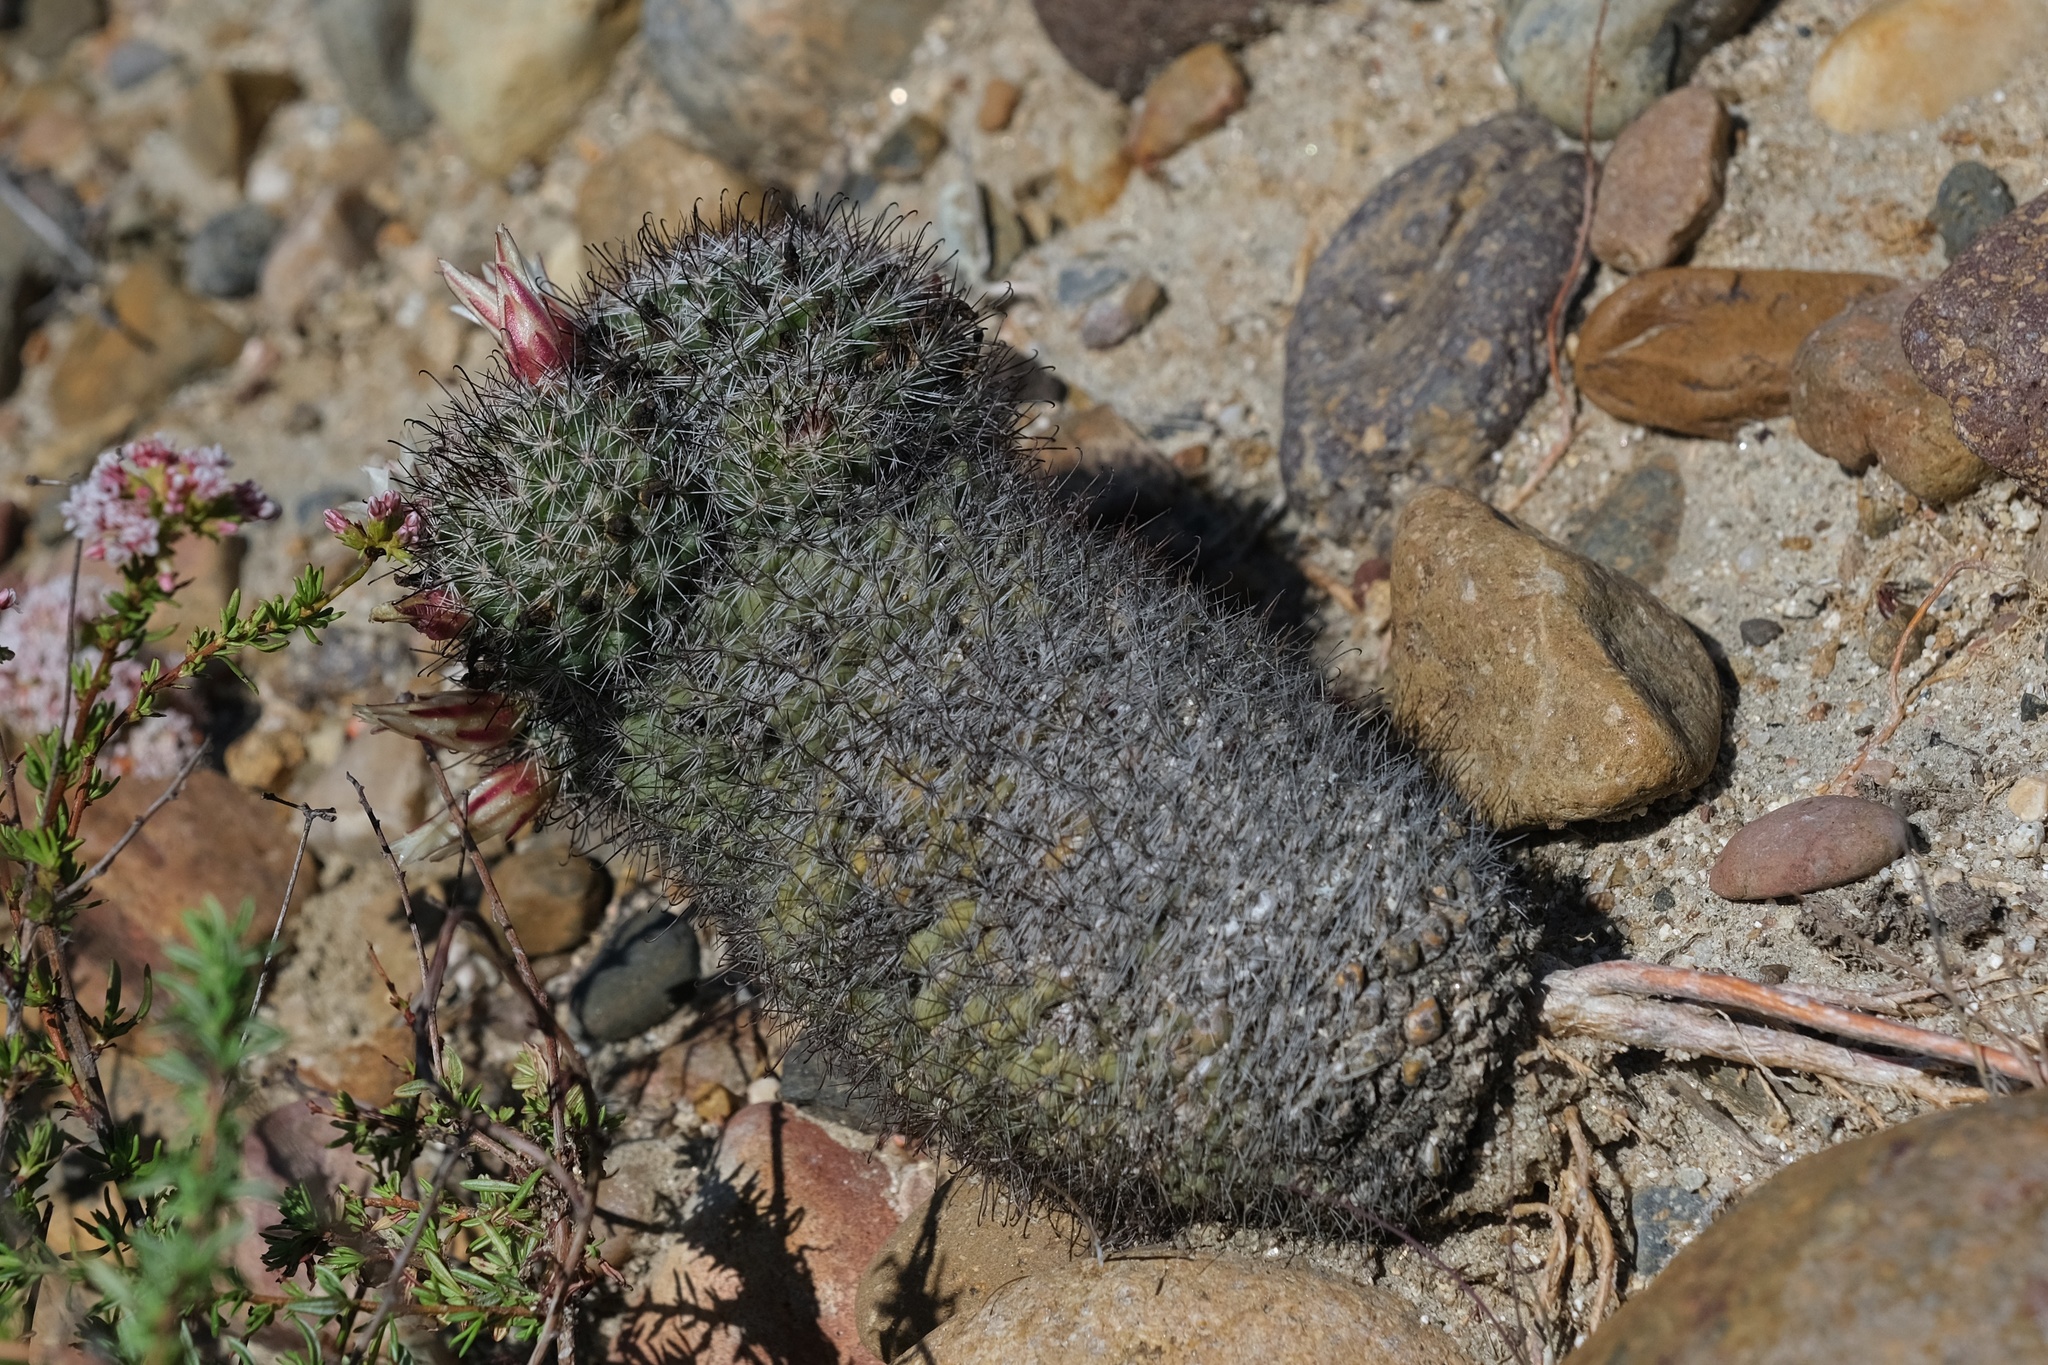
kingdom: Plantae
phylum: Tracheophyta
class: Magnoliopsida
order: Caryophyllales
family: Cactaceae
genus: Cochemiea
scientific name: Cochemiea dioica
